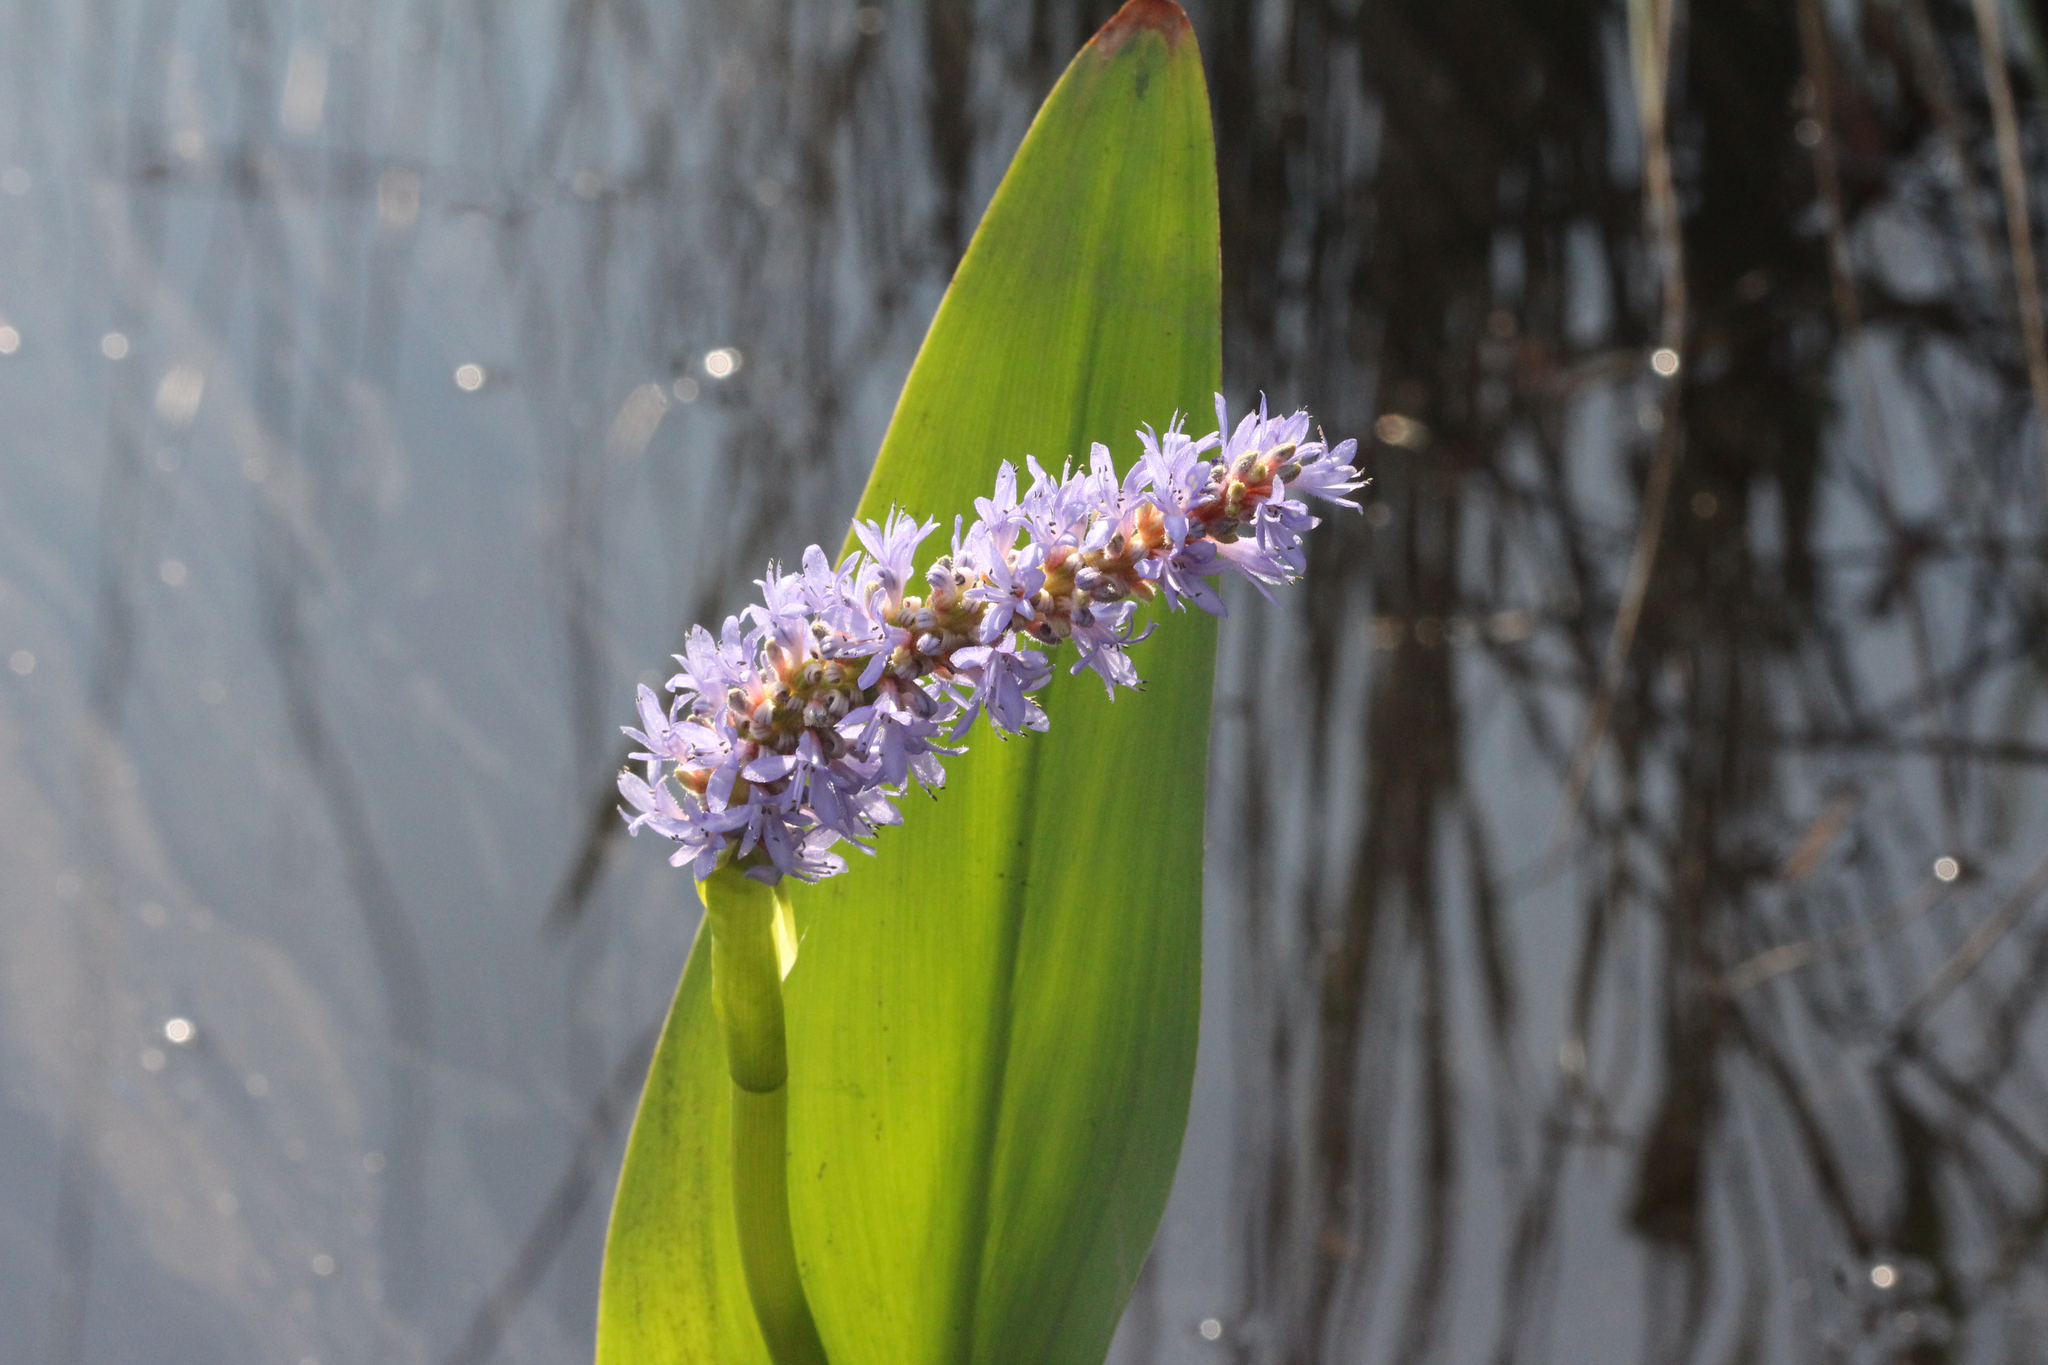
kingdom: Plantae
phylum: Tracheophyta
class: Liliopsida
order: Commelinales
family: Pontederiaceae
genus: Pontederia
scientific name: Pontederia cordata
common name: Pickerelweed
